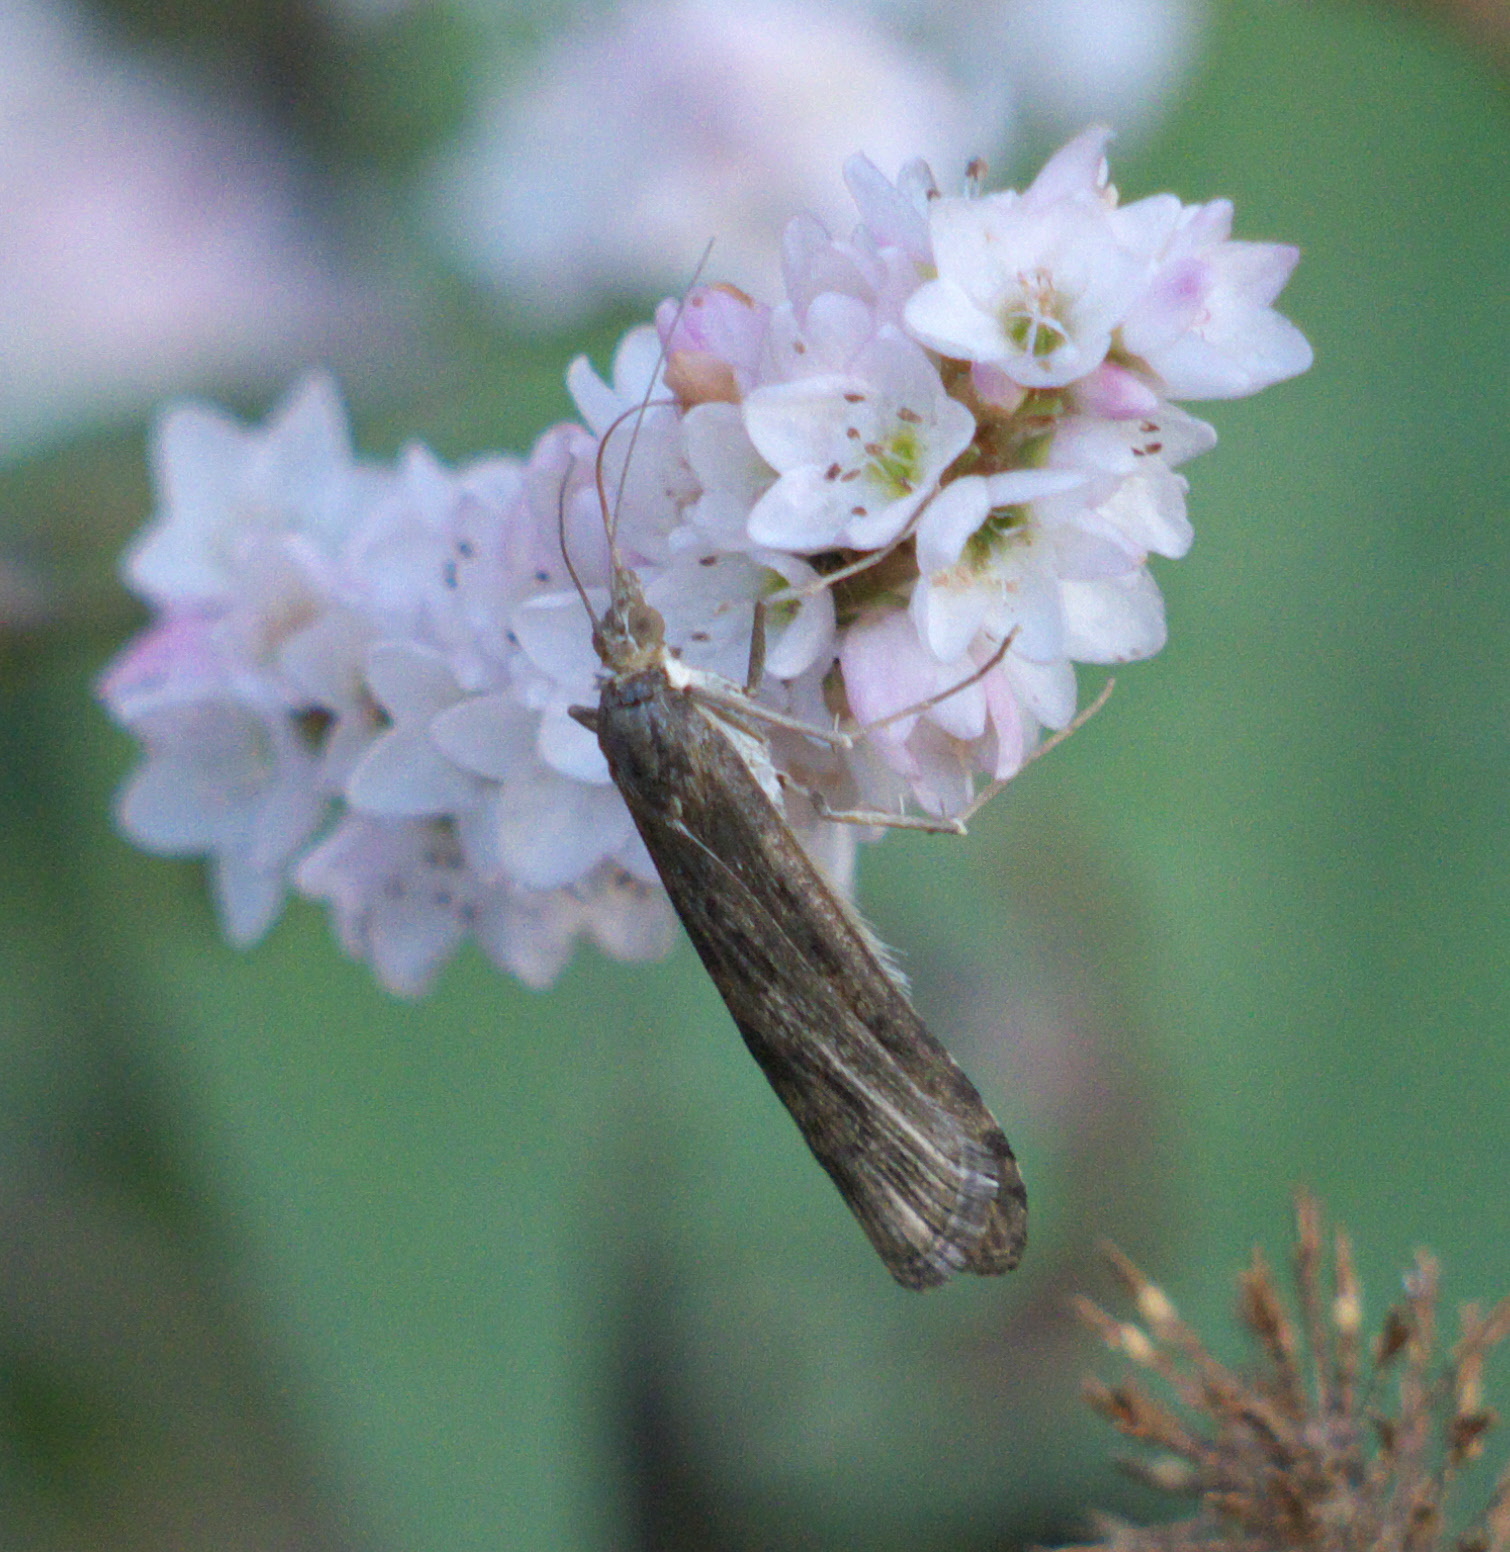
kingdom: Animalia
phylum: Arthropoda
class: Insecta
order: Lepidoptera
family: Crambidae
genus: Nomophila
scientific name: Nomophila nearctica
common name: American rush veneer
